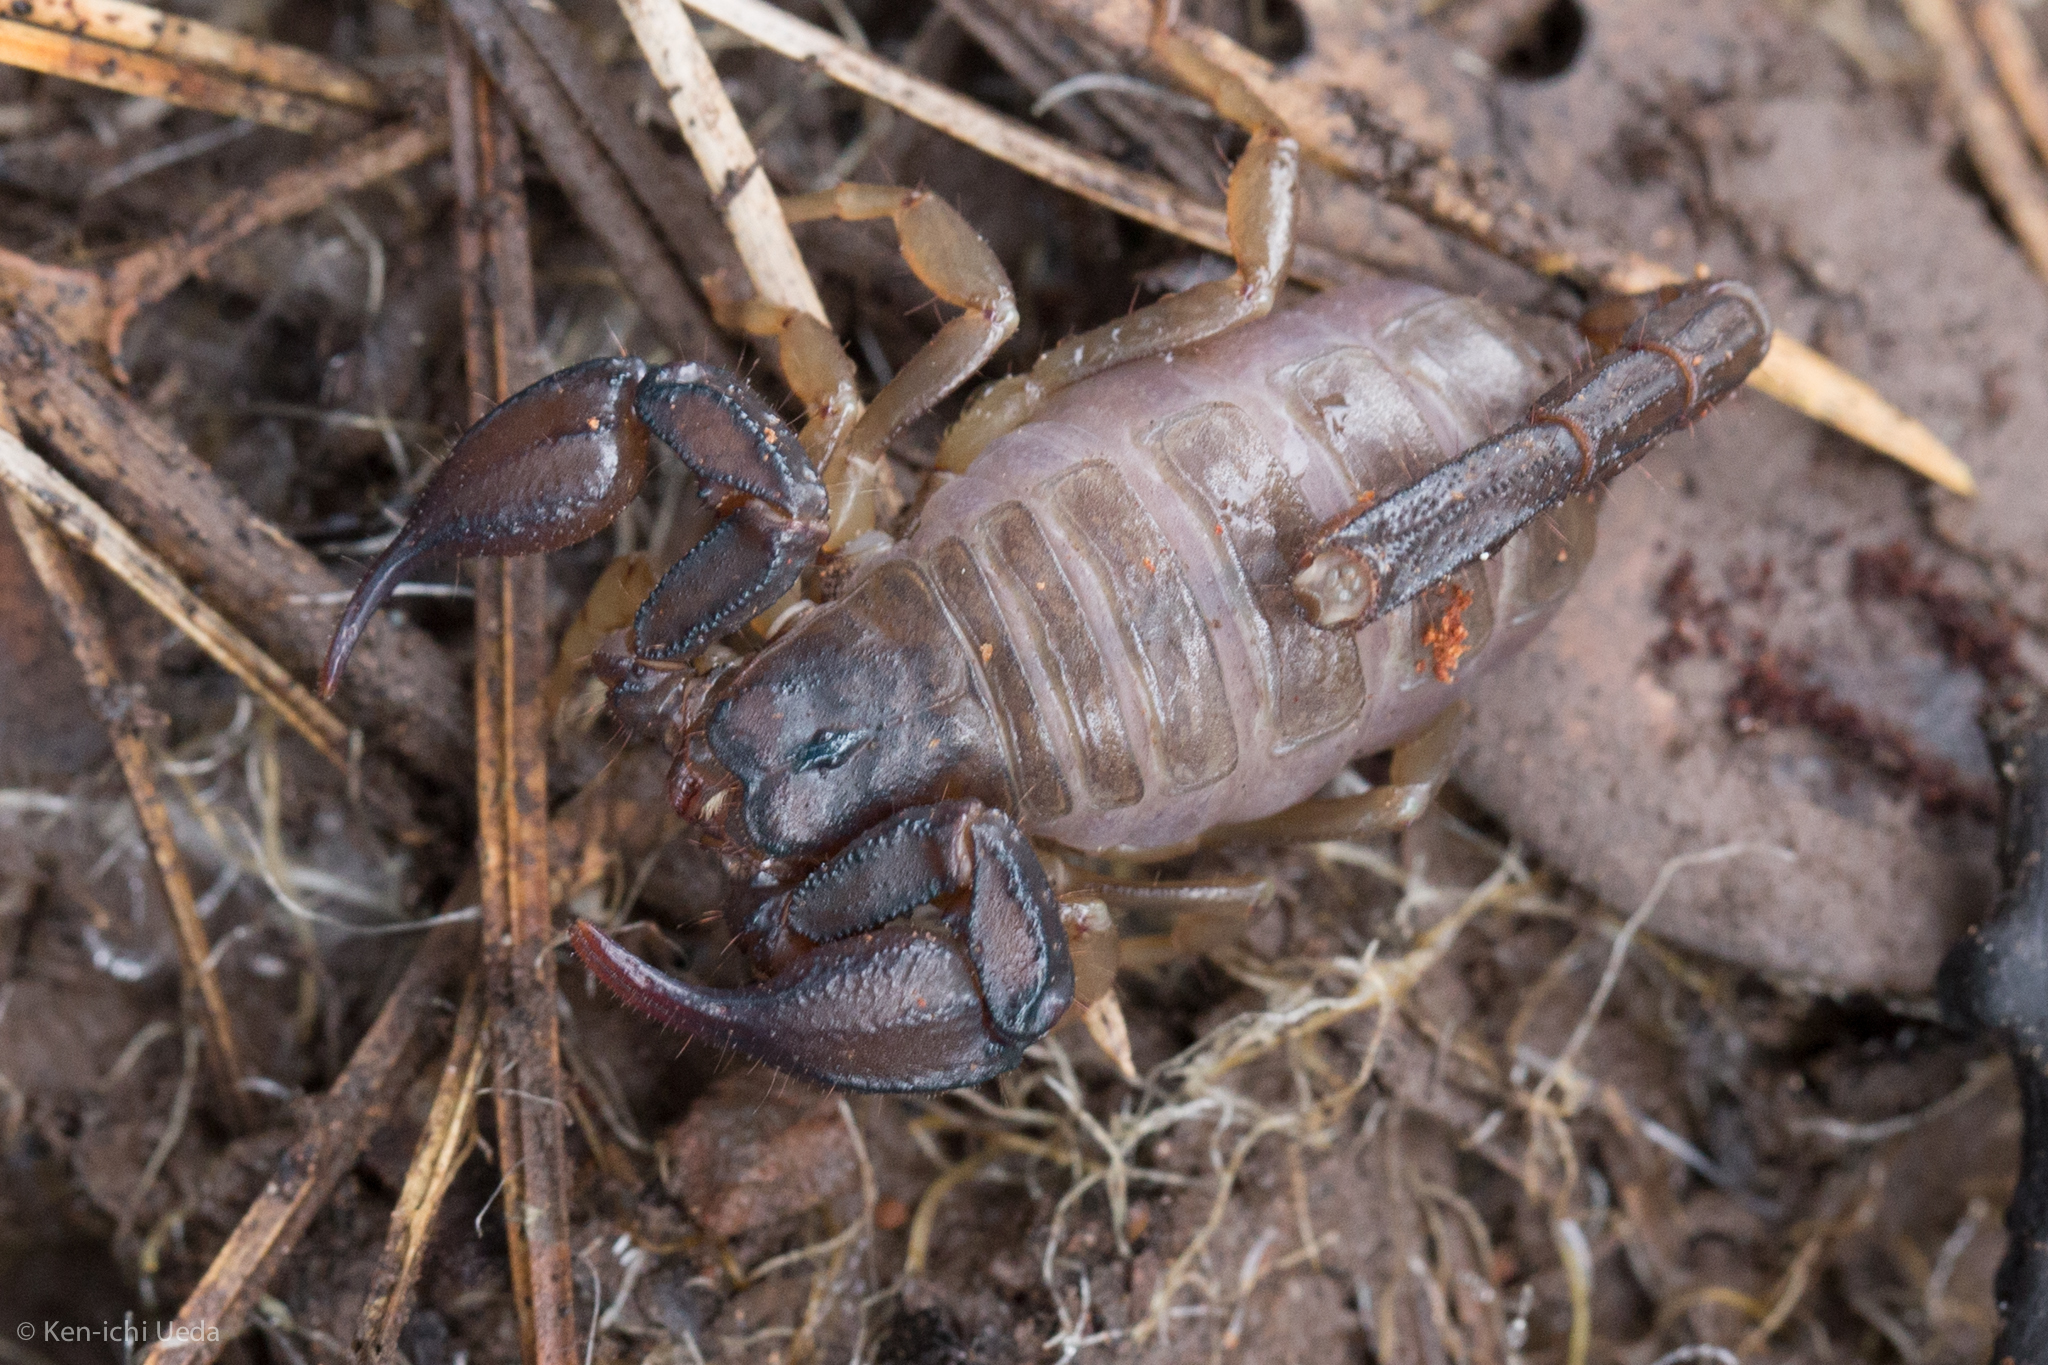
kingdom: Animalia
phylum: Arthropoda
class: Arachnida
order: Scorpiones
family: Chactidae
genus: Uroctonus
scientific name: Uroctonus mordax
